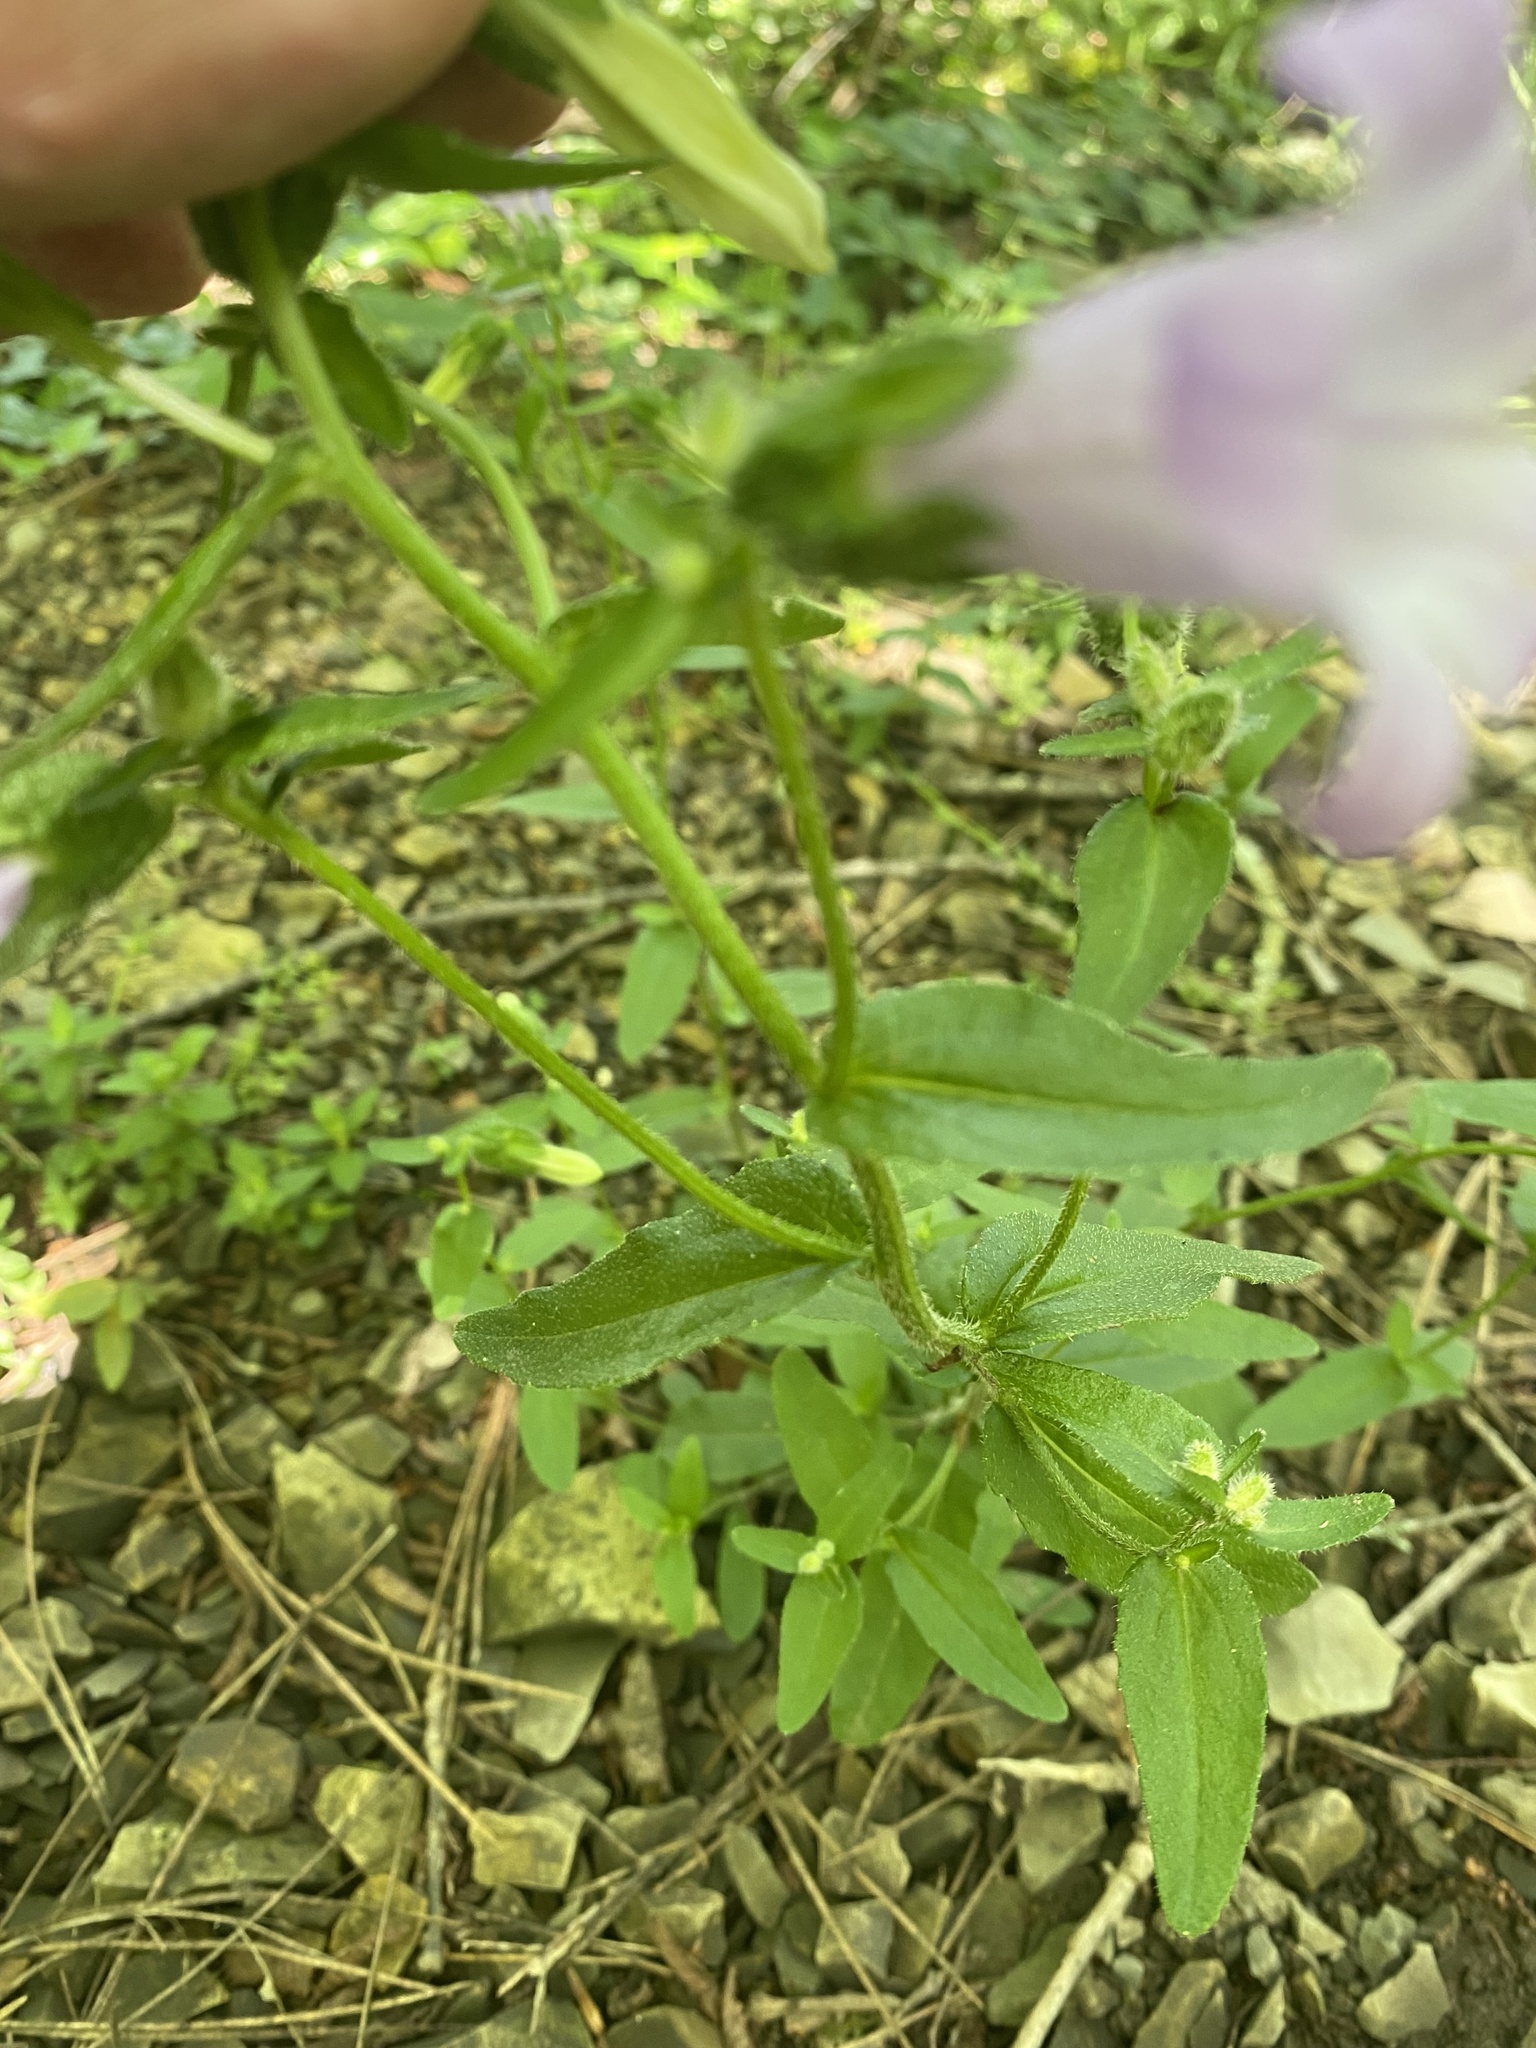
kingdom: Plantae
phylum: Tracheophyta
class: Magnoliopsida
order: Asterales
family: Campanulaceae
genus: Campanula
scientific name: Campanula komarovii
